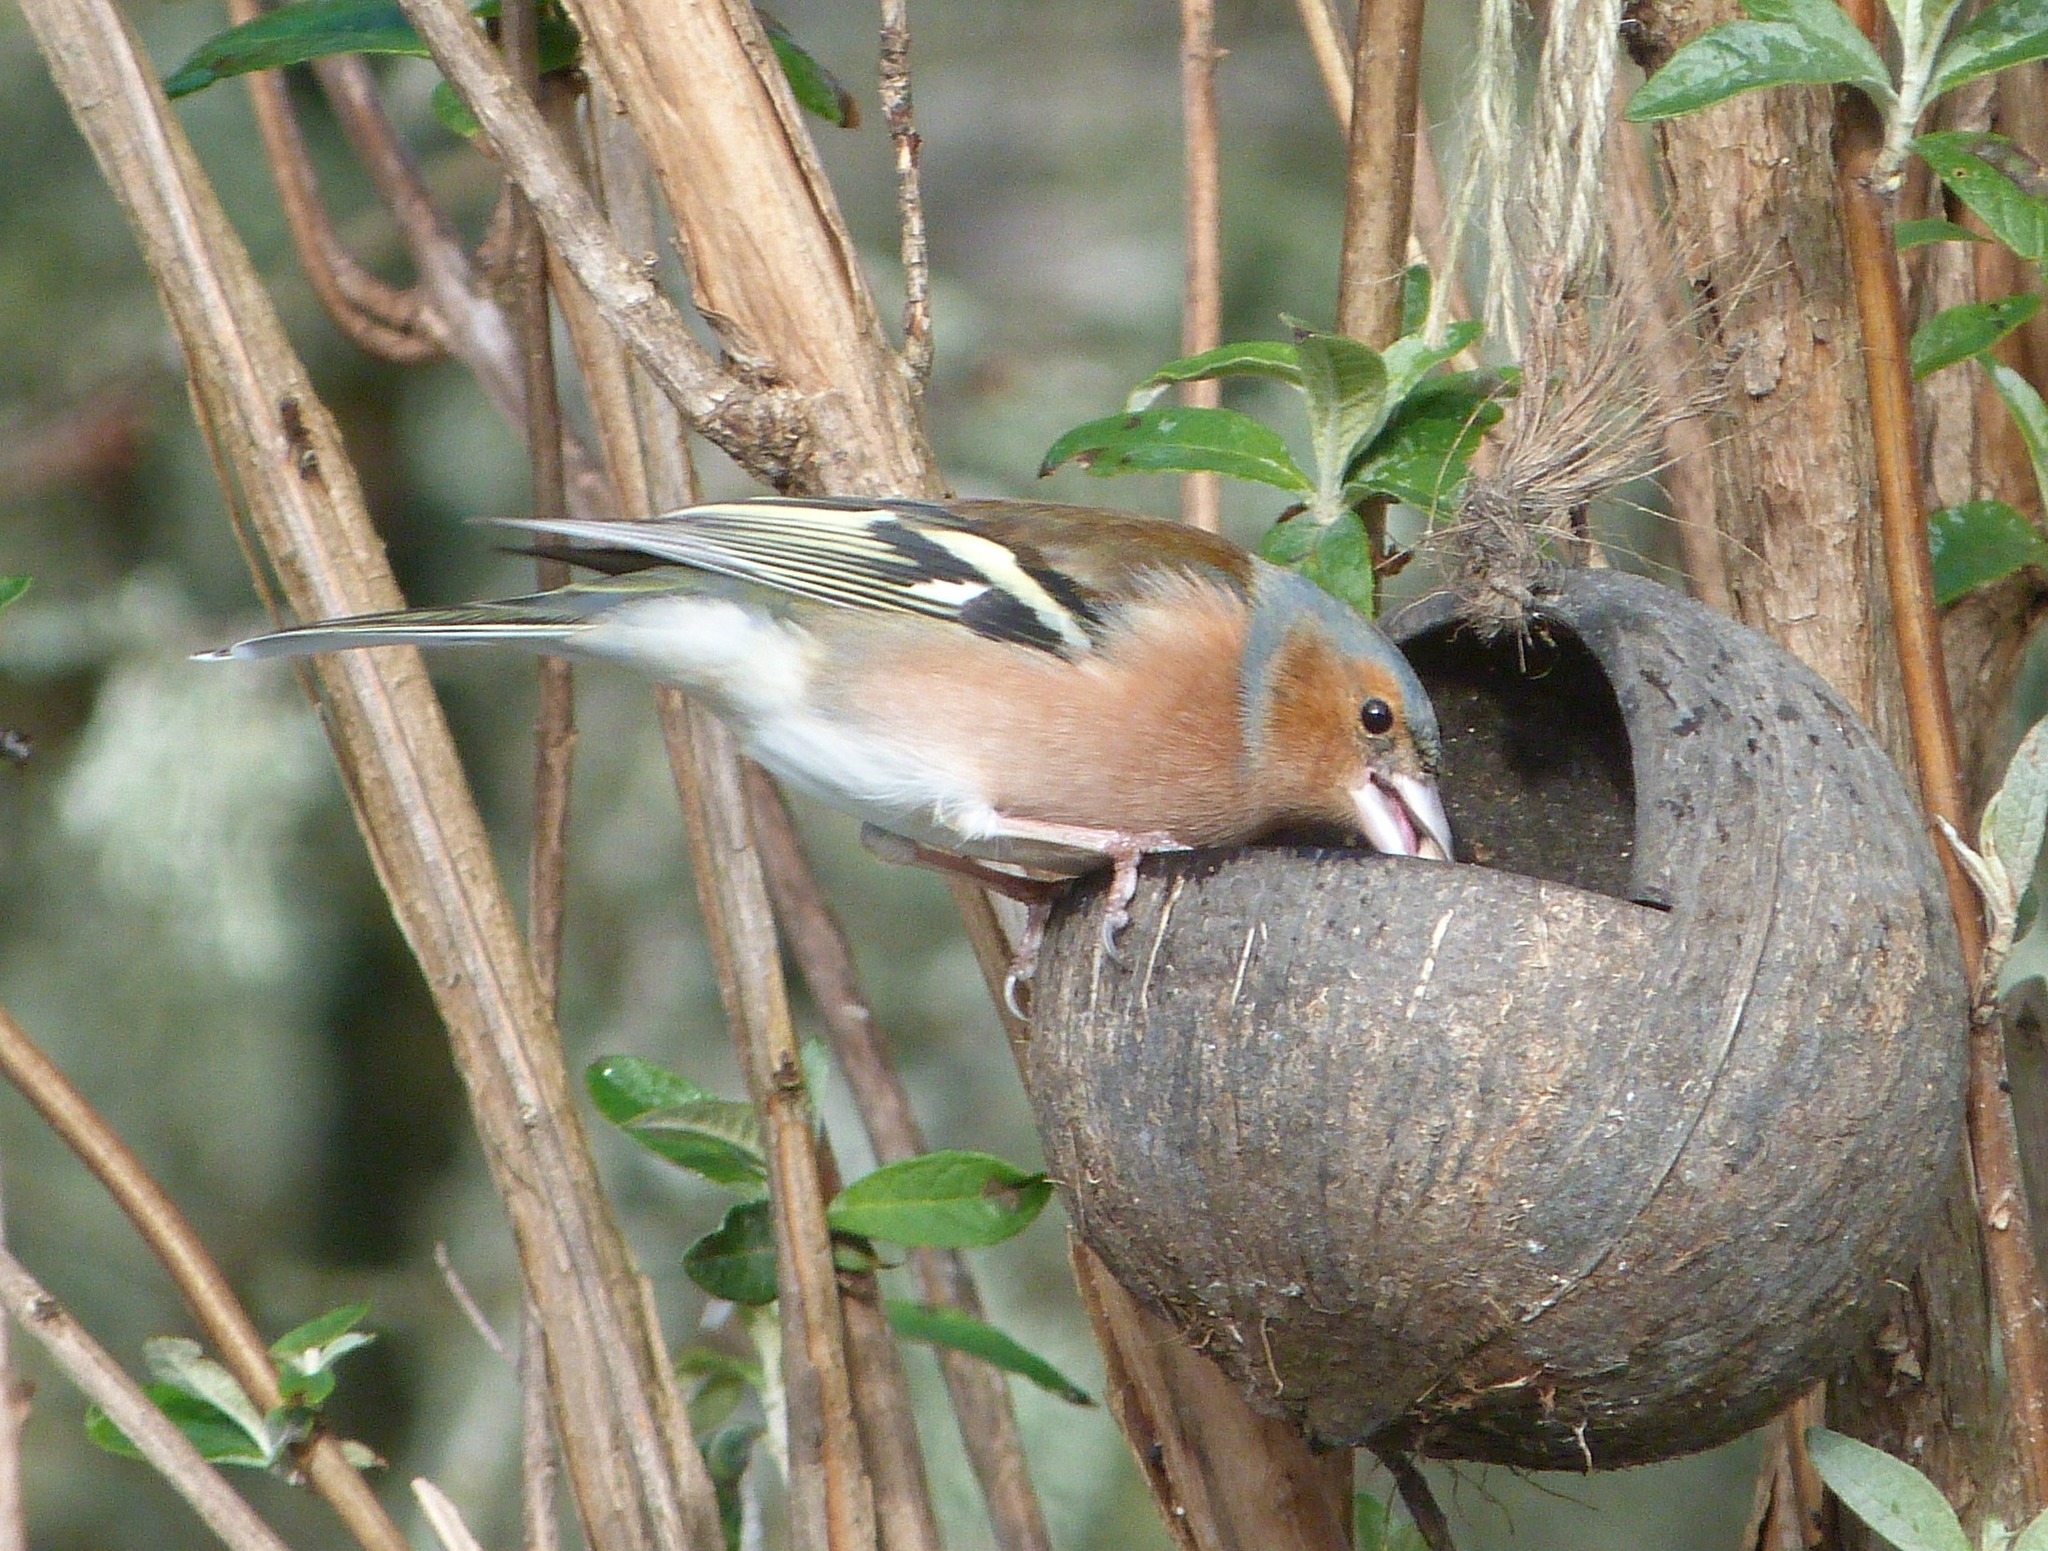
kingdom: Animalia
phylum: Chordata
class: Aves
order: Passeriformes
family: Fringillidae
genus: Fringilla
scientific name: Fringilla coelebs
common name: Common chaffinch
